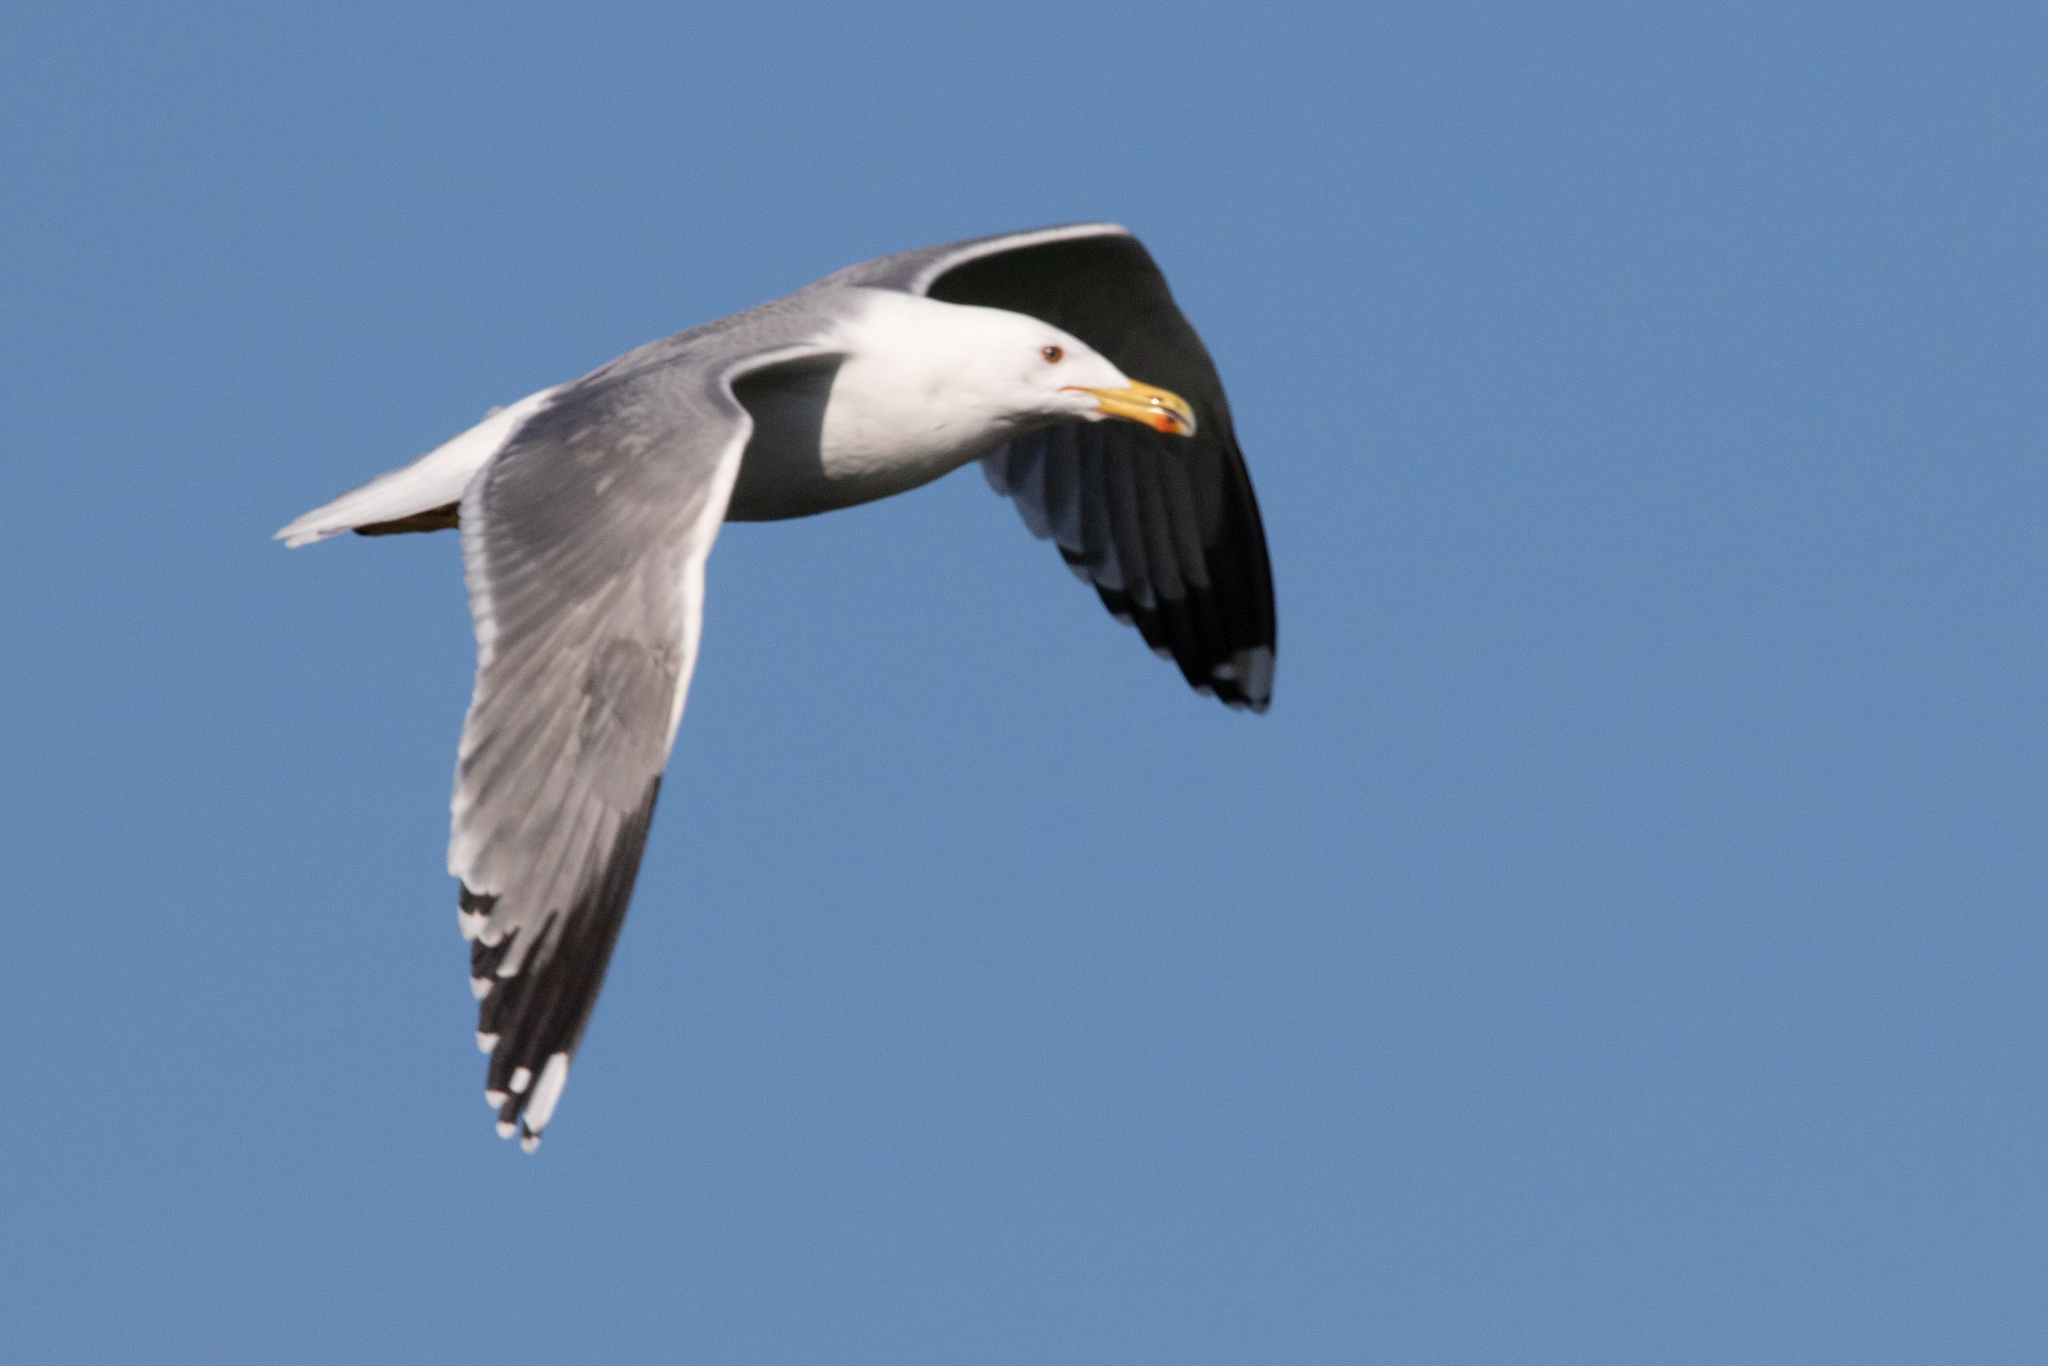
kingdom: Animalia
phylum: Chordata
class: Aves
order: Charadriiformes
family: Laridae
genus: Larus
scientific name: Larus michahellis
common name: Yellow-legged gull
